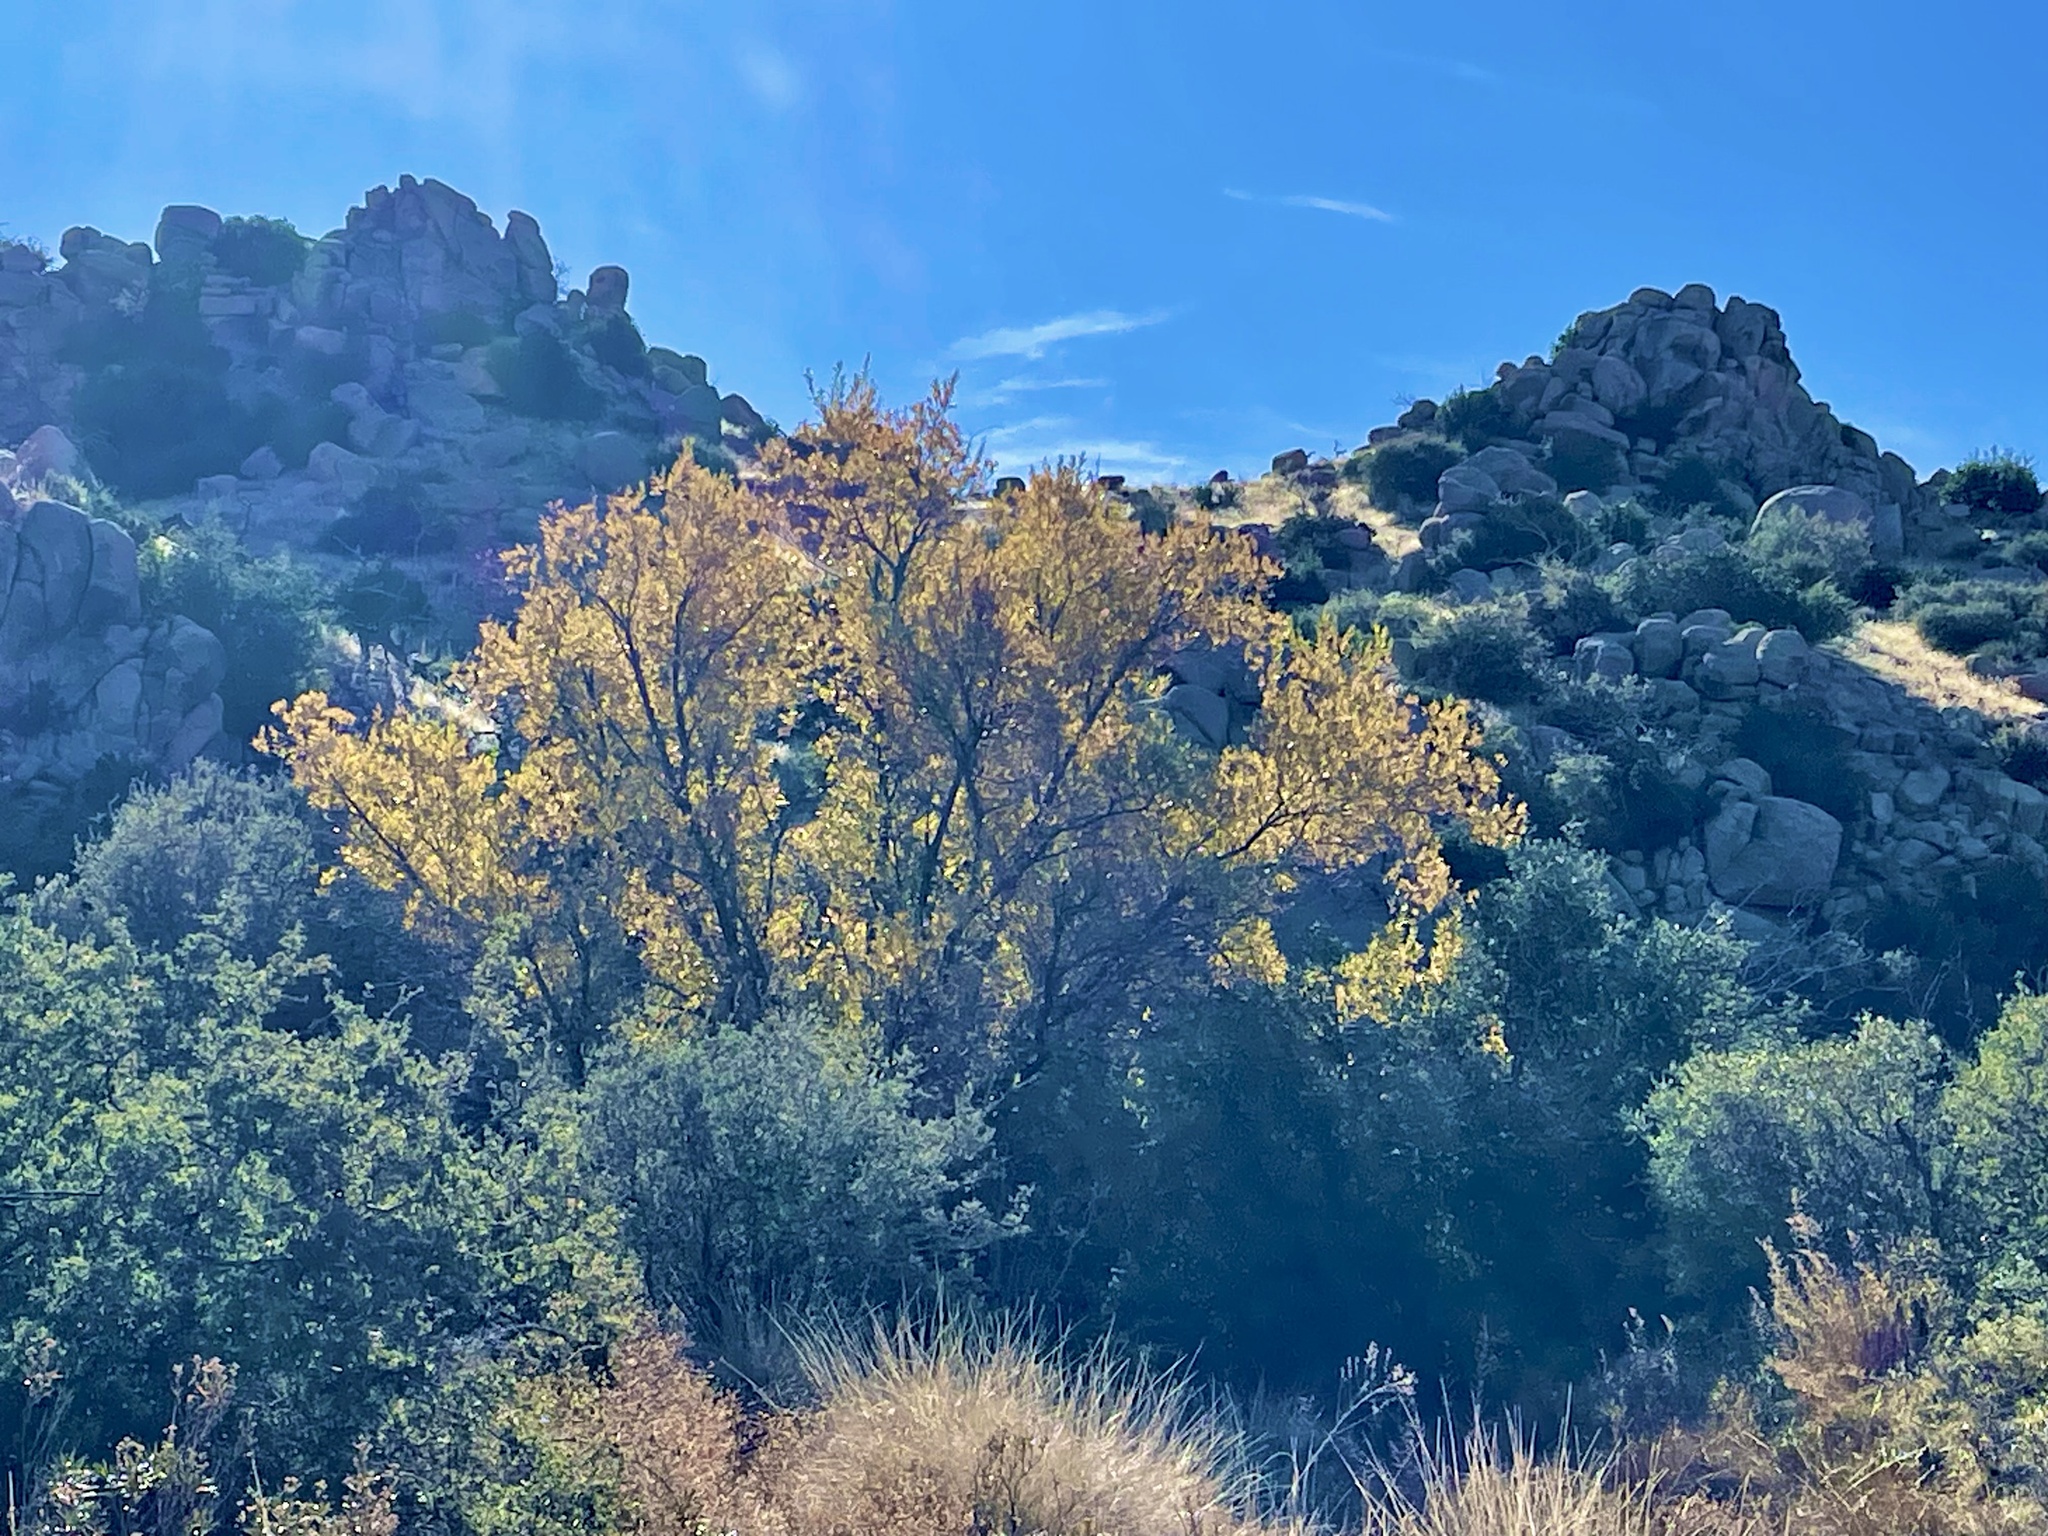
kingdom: Plantae
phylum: Tracheophyta
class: Magnoliopsida
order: Malpighiales
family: Salicaceae
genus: Populus
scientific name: Populus fremontii
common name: Fremont's cottonwood
